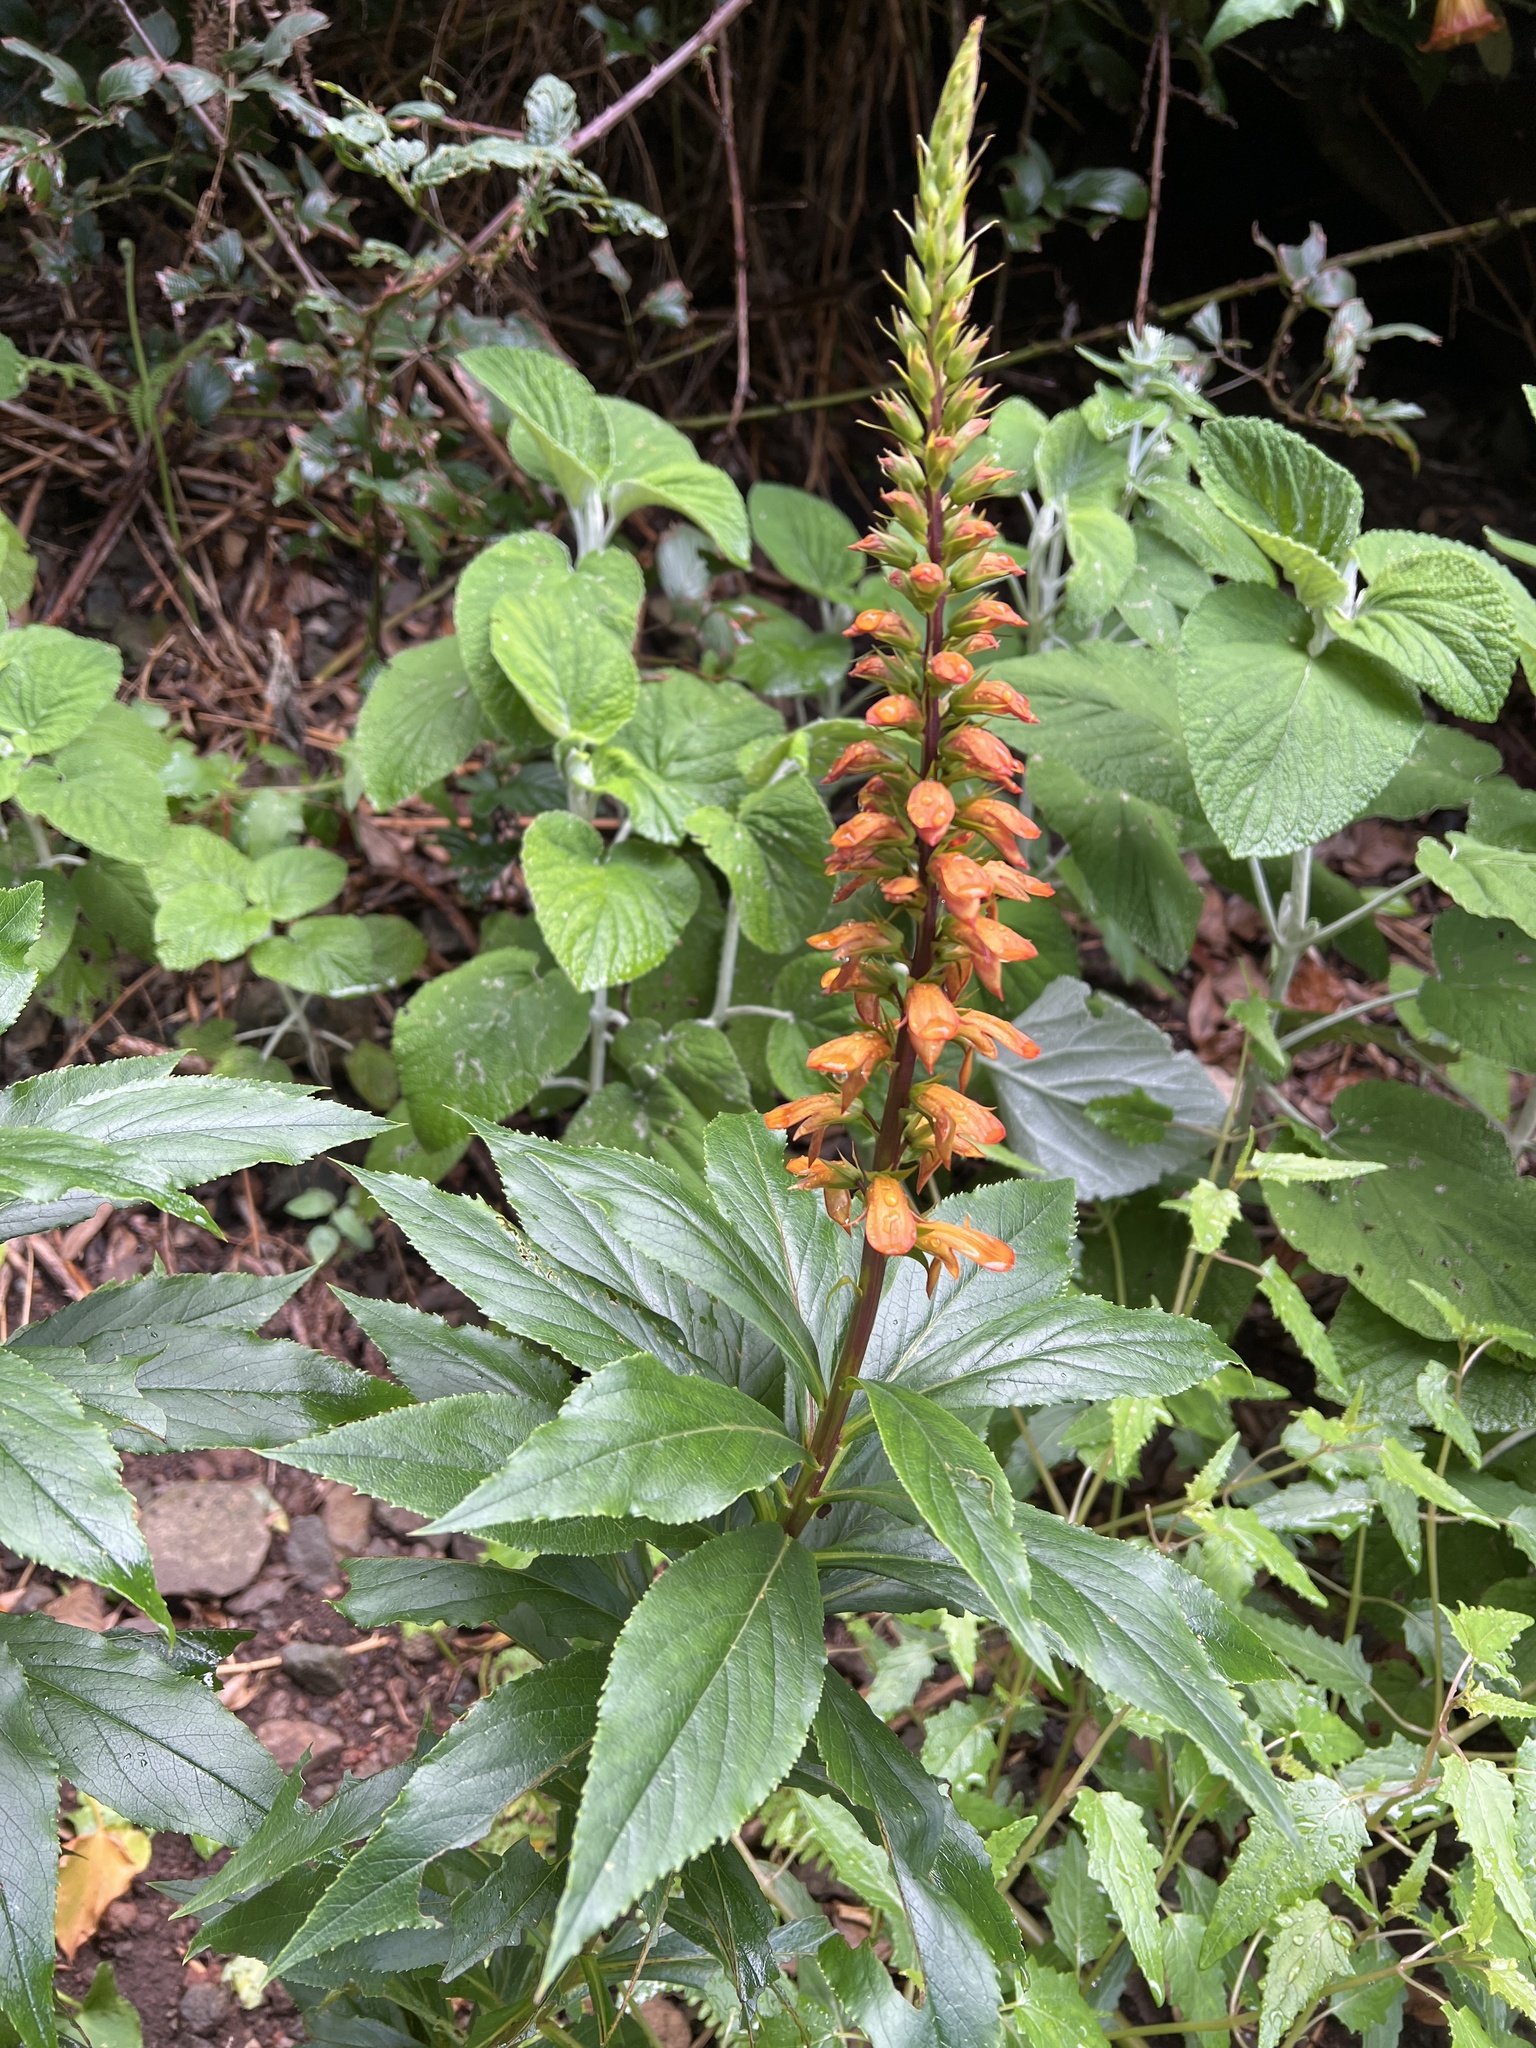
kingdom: Plantae
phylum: Tracheophyta
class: Magnoliopsida
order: Lamiales
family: Plantaginaceae
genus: Digitalis
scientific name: Digitalis canariensis
